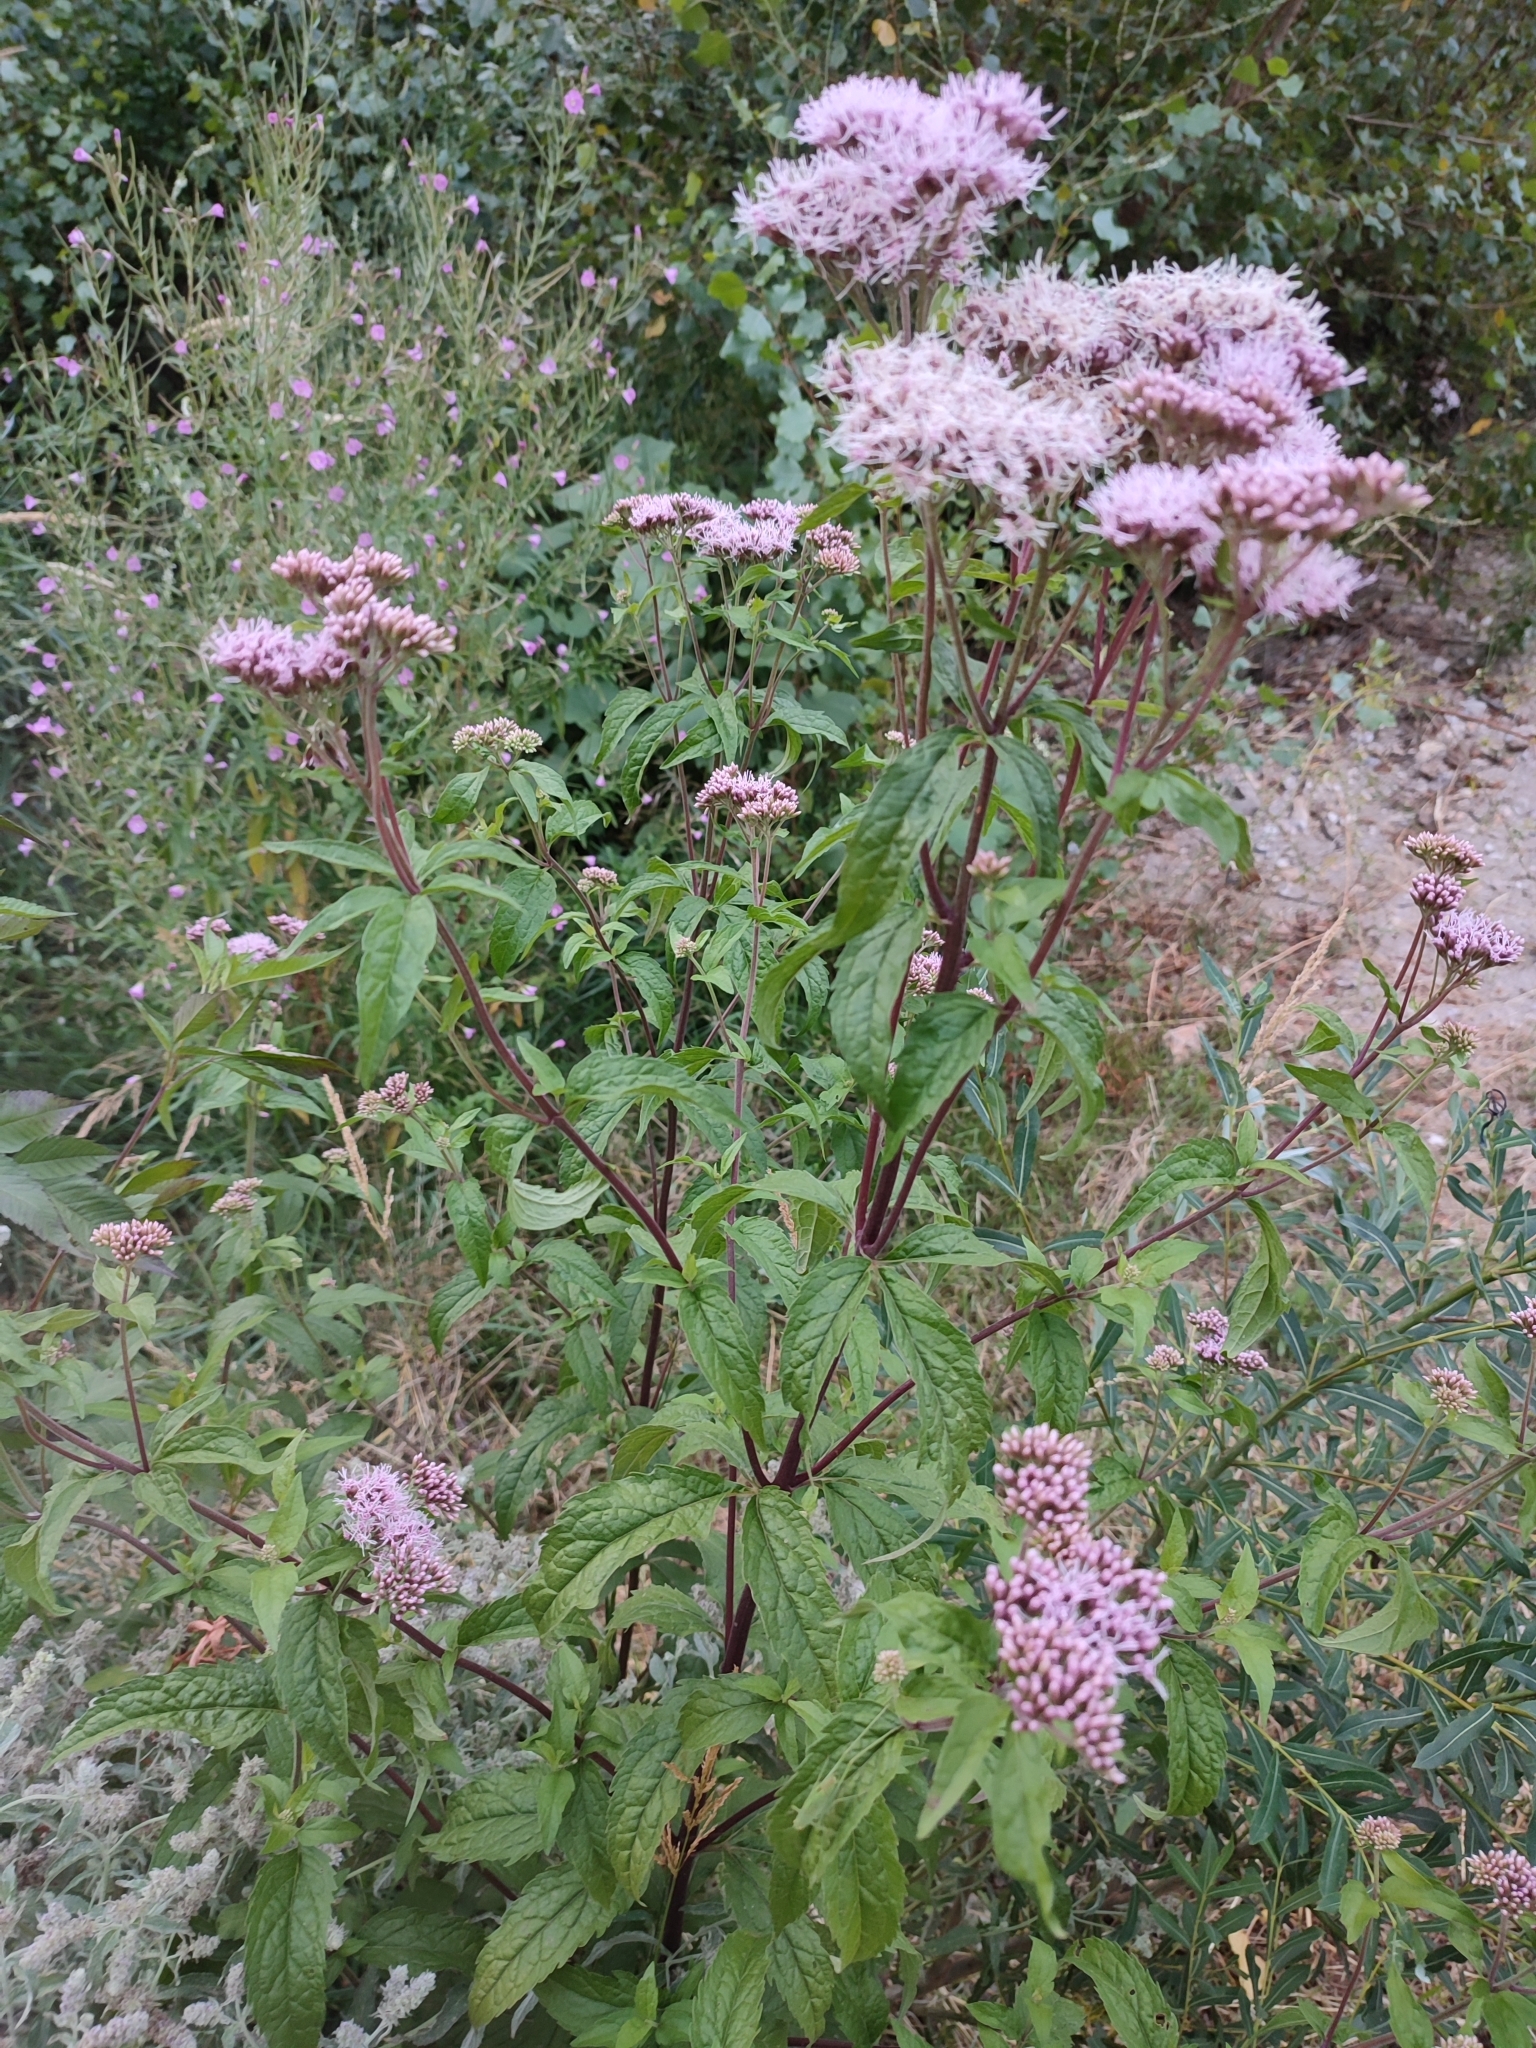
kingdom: Plantae
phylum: Tracheophyta
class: Magnoliopsida
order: Asterales
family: Asteraceae
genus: Eupatorium
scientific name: Eupatorium cannabinum
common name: Hemp-agrimony
